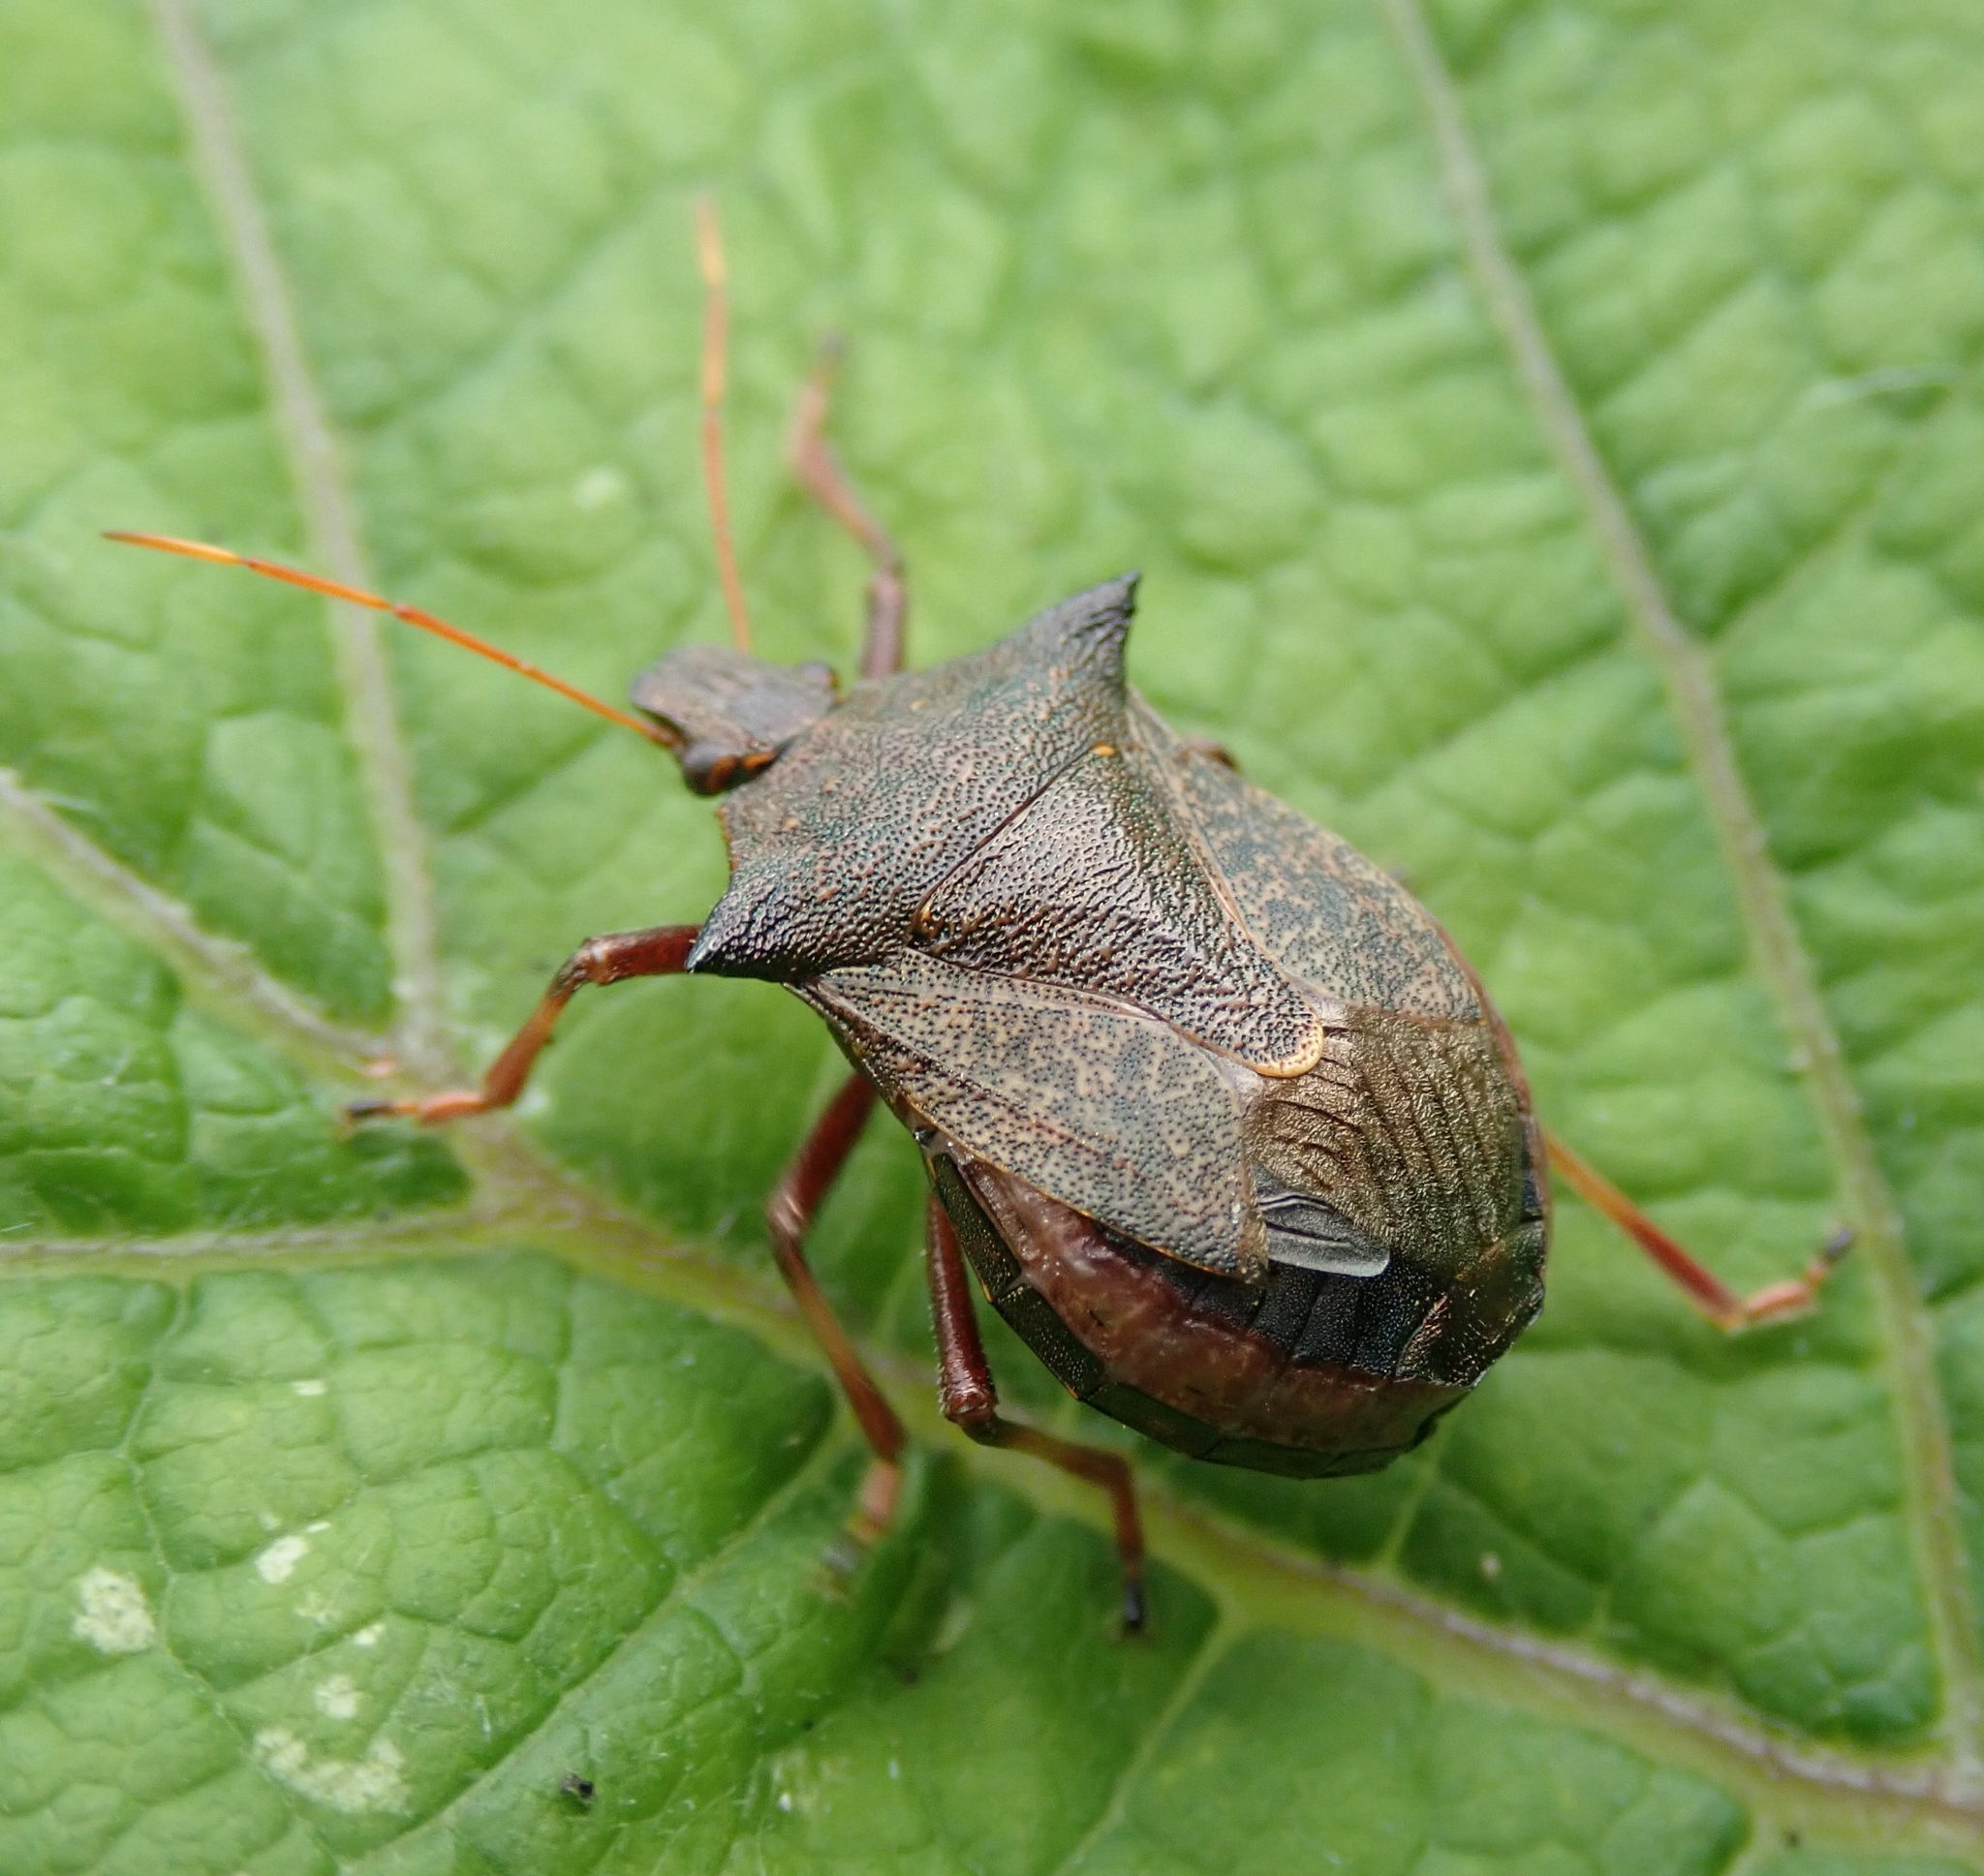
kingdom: Animalia
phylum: Arthropoda
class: Insecta
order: Hemiptera
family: Pentatomidae
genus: Picromerus
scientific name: Picromerus bidens
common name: Spiked shieldbug
